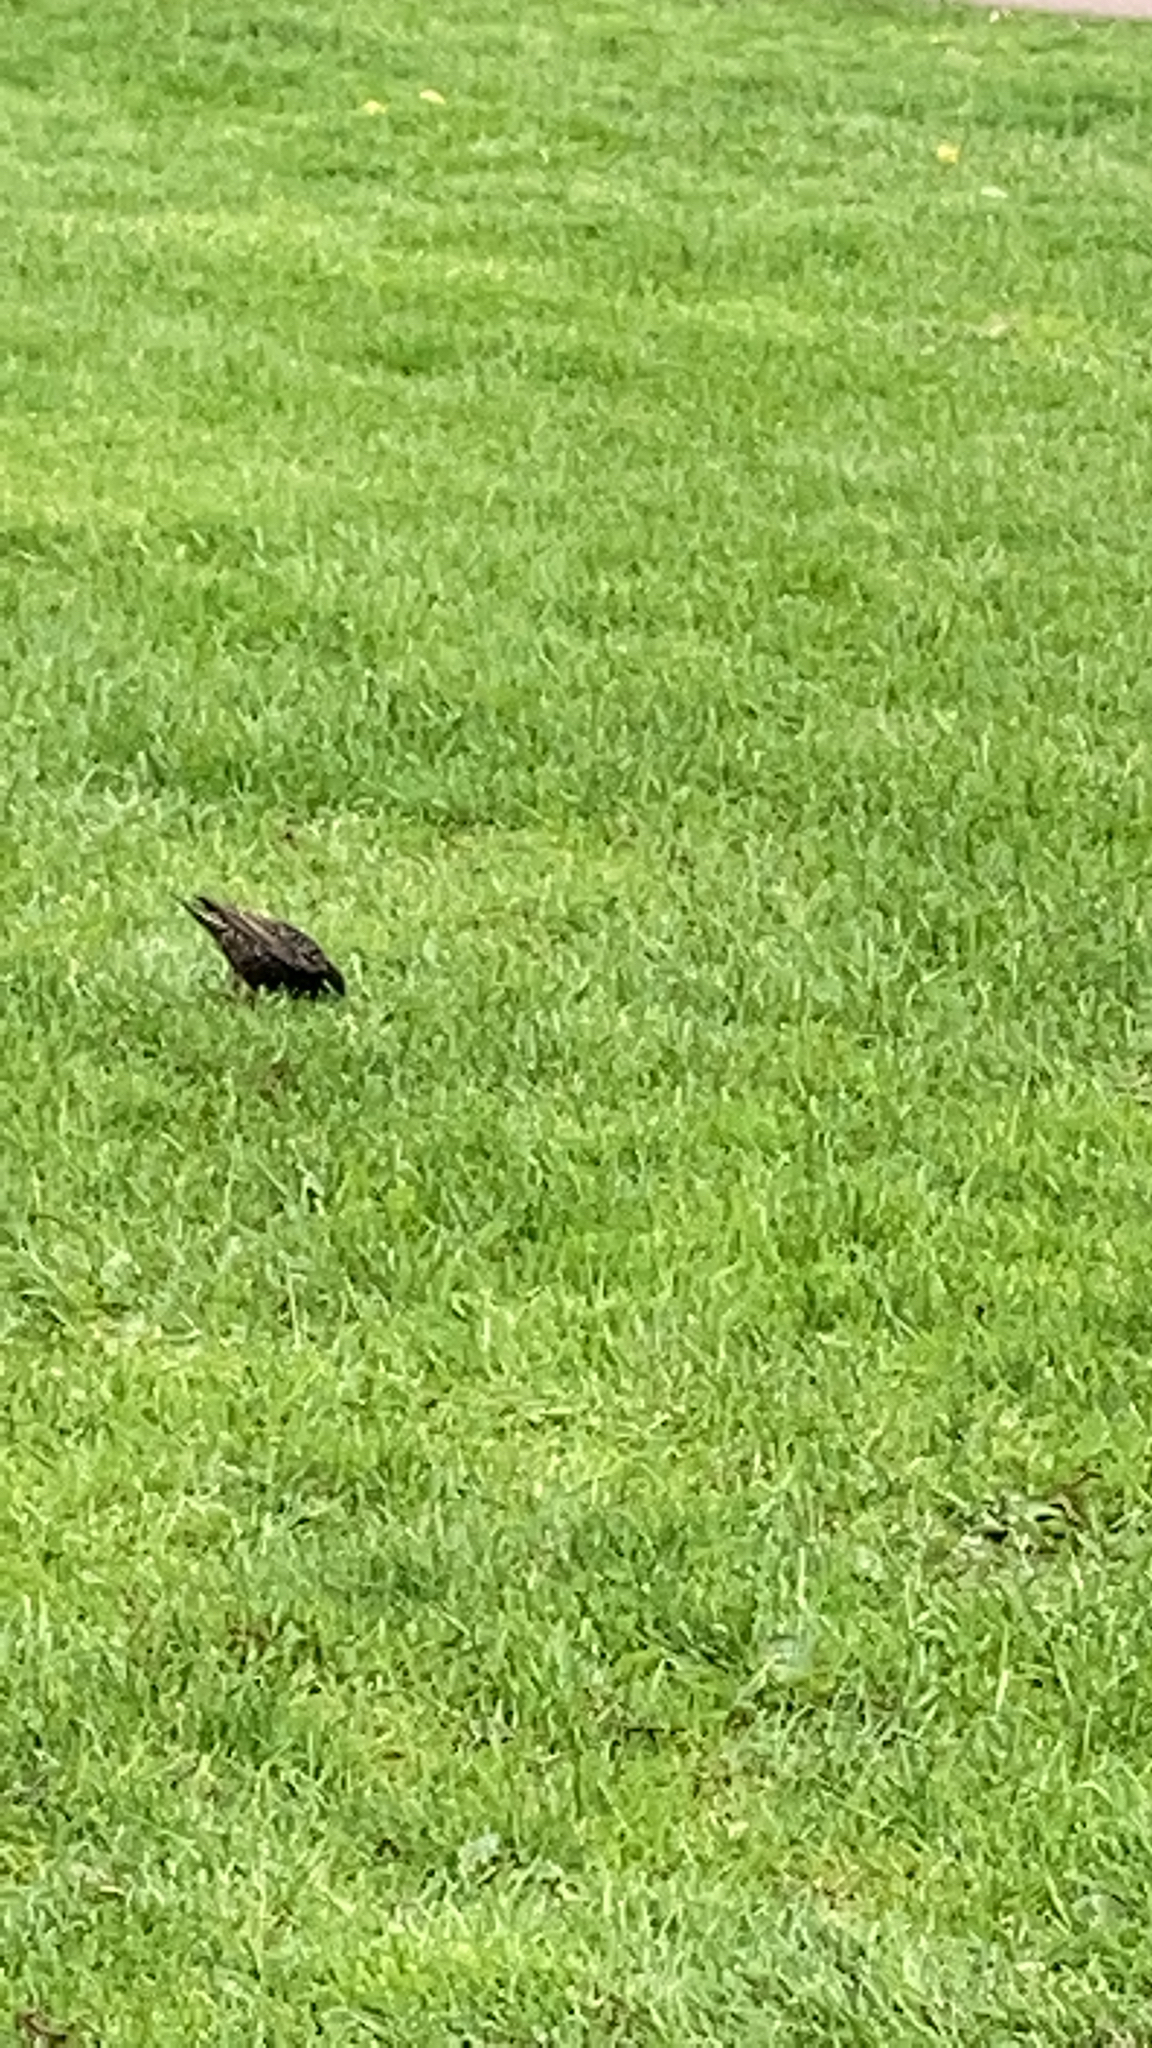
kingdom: Animalia
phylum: Chordata
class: Aves
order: Passeriformes
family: Sturnidae
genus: Sturnus
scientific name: Sturnus vulgaris
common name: Common starling
